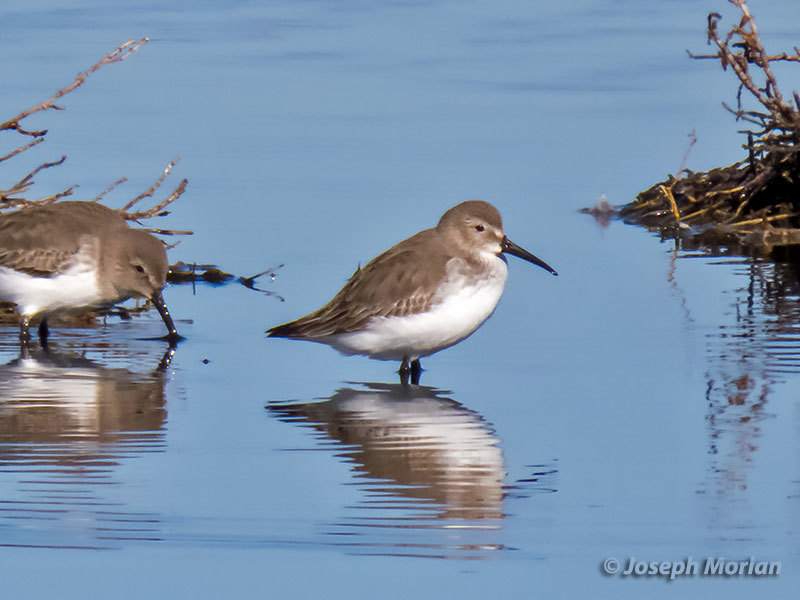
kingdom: Animalia
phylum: Chordata
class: Aves
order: Charadriiformes
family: Scolopacidae
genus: Calidris
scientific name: Calidris alpina
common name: Dunlin
